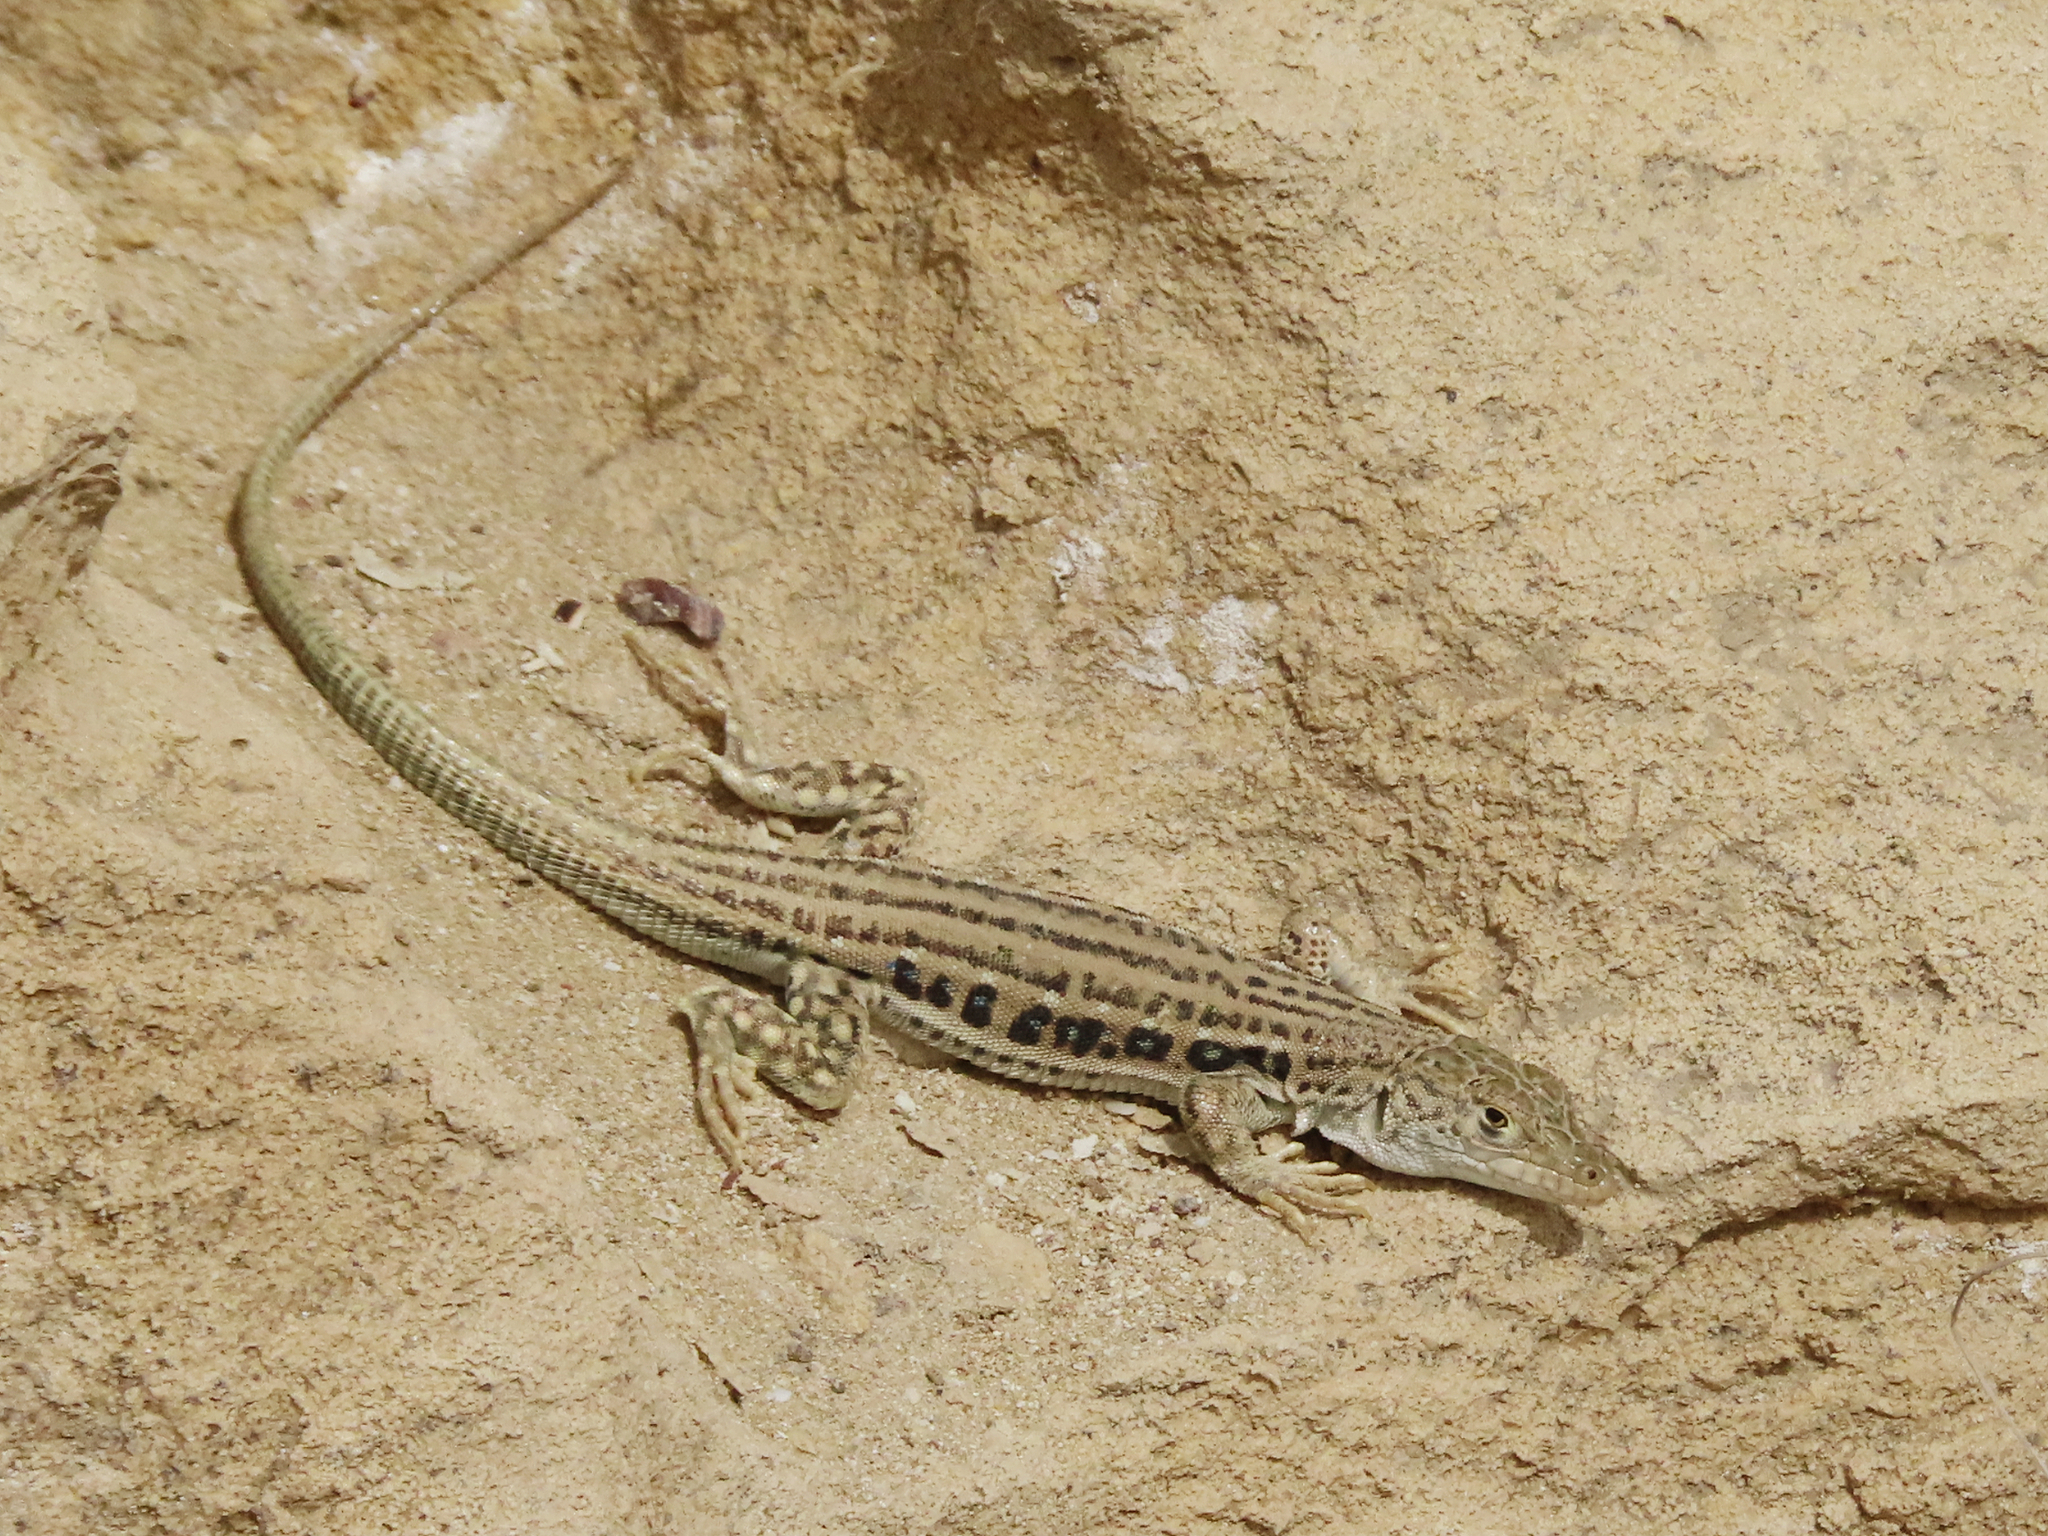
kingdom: Animalia
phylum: Chordata
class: Squamata
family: Lacertidae
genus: Eremias
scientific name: Eremias velox
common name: Central asian racerunner
